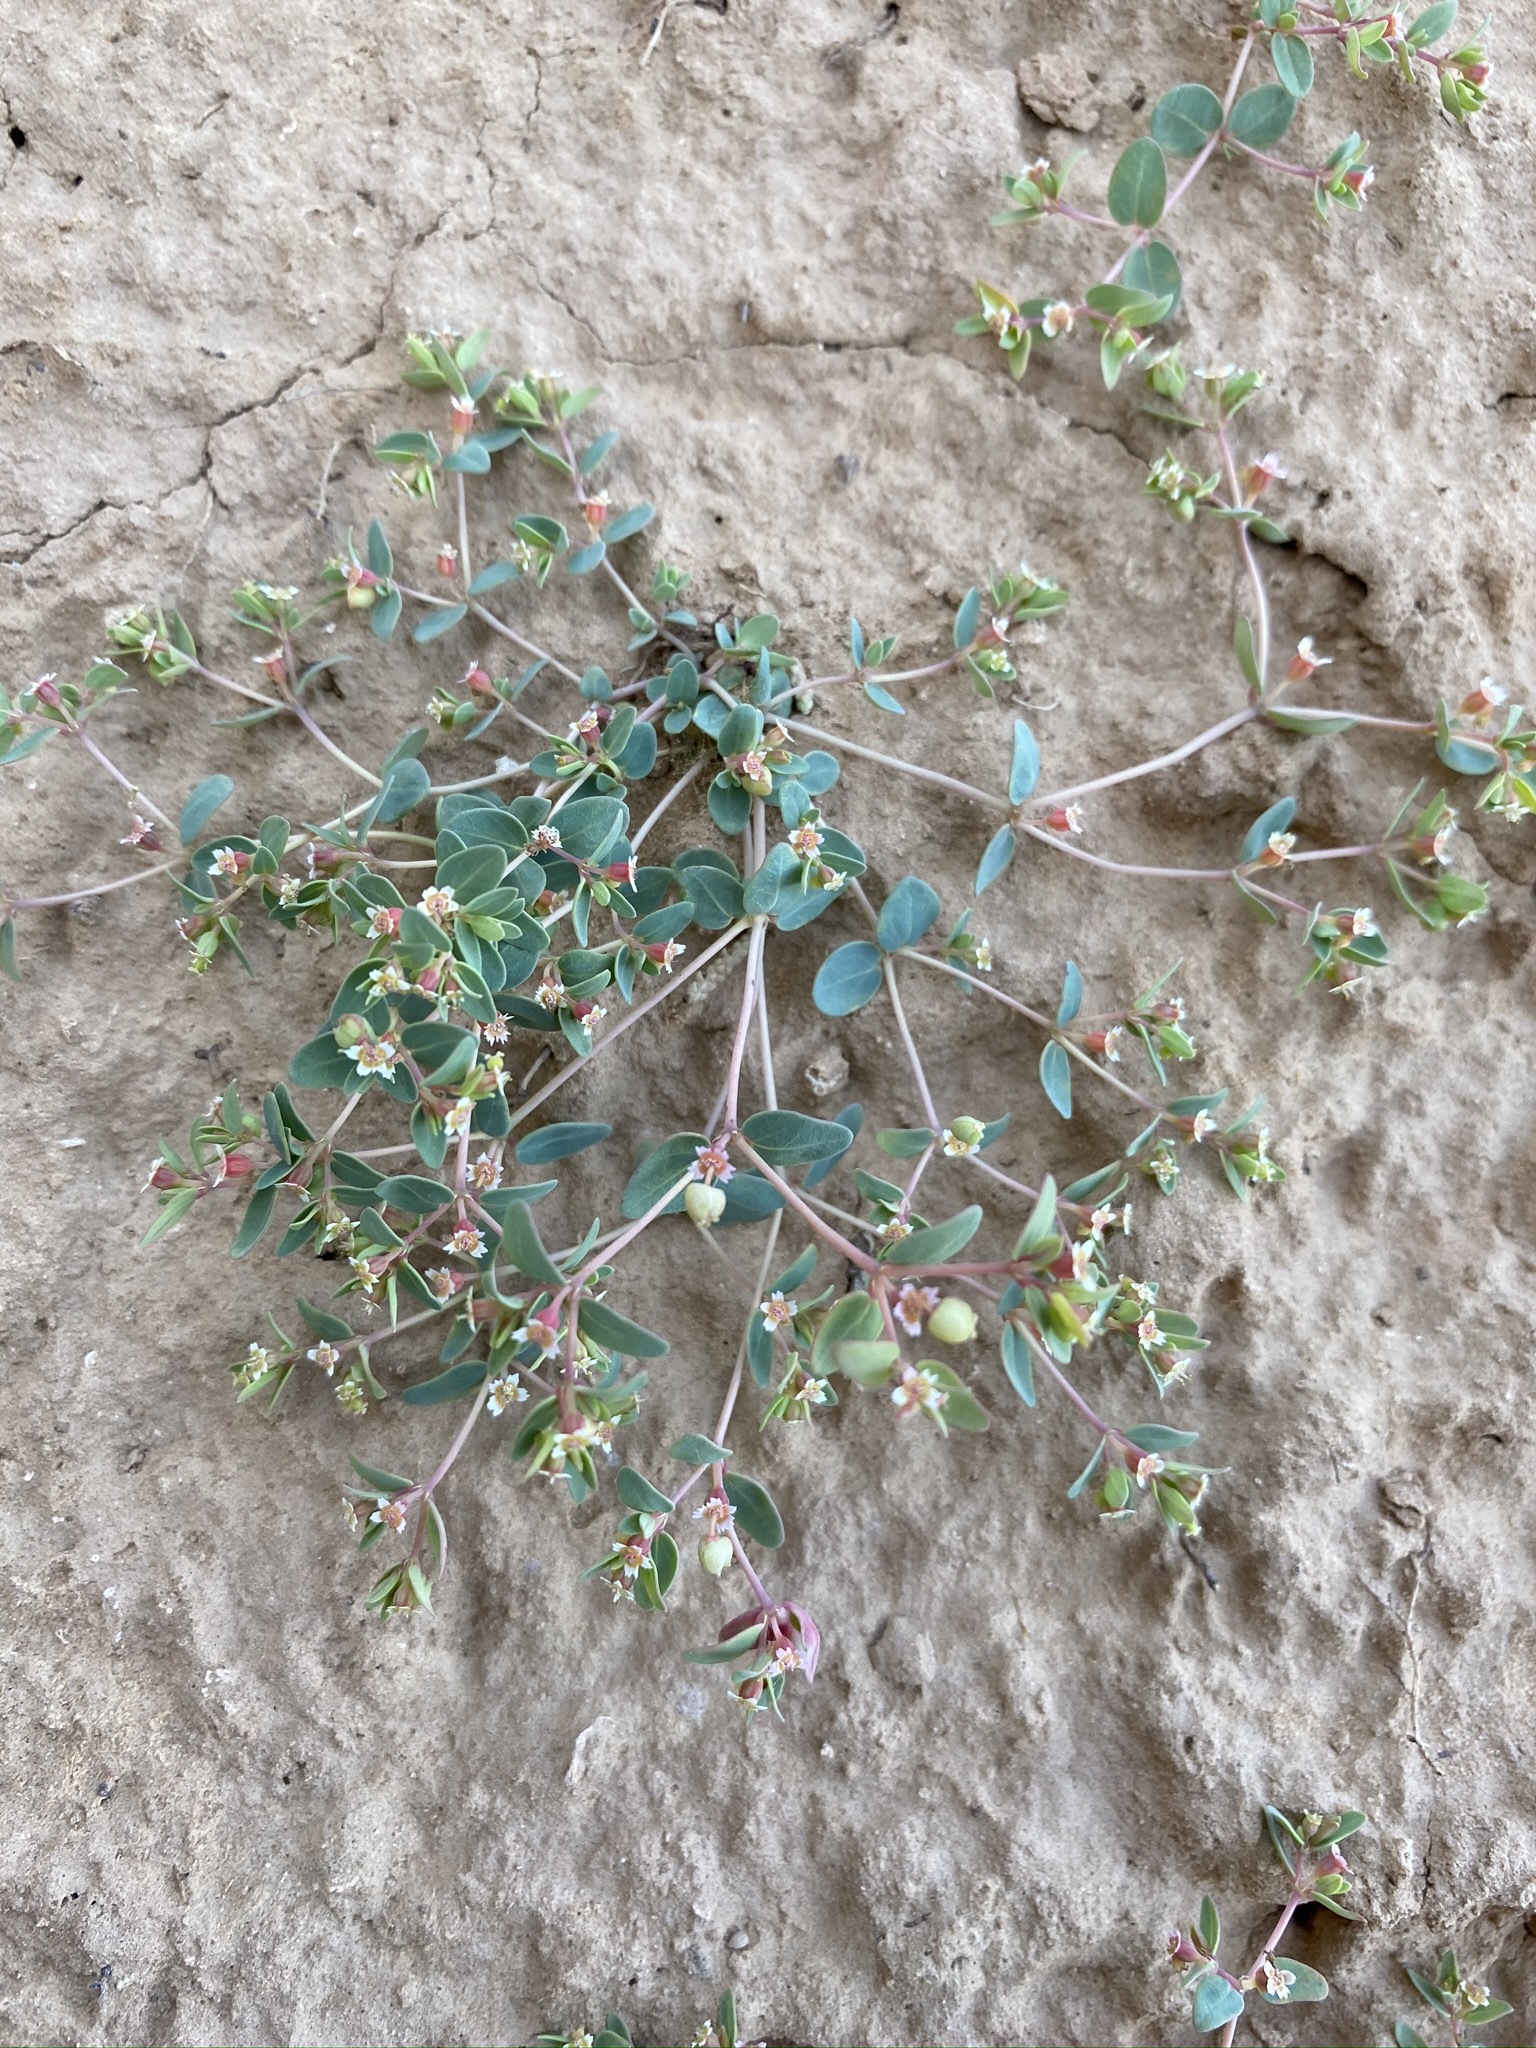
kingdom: Plantae
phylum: Tracheophyta
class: Magnoliopsida
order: Malpighiales
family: Euphorbiaceae
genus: Euphorbia
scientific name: Euphorbia fendleri
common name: Fendler's euphorbia
